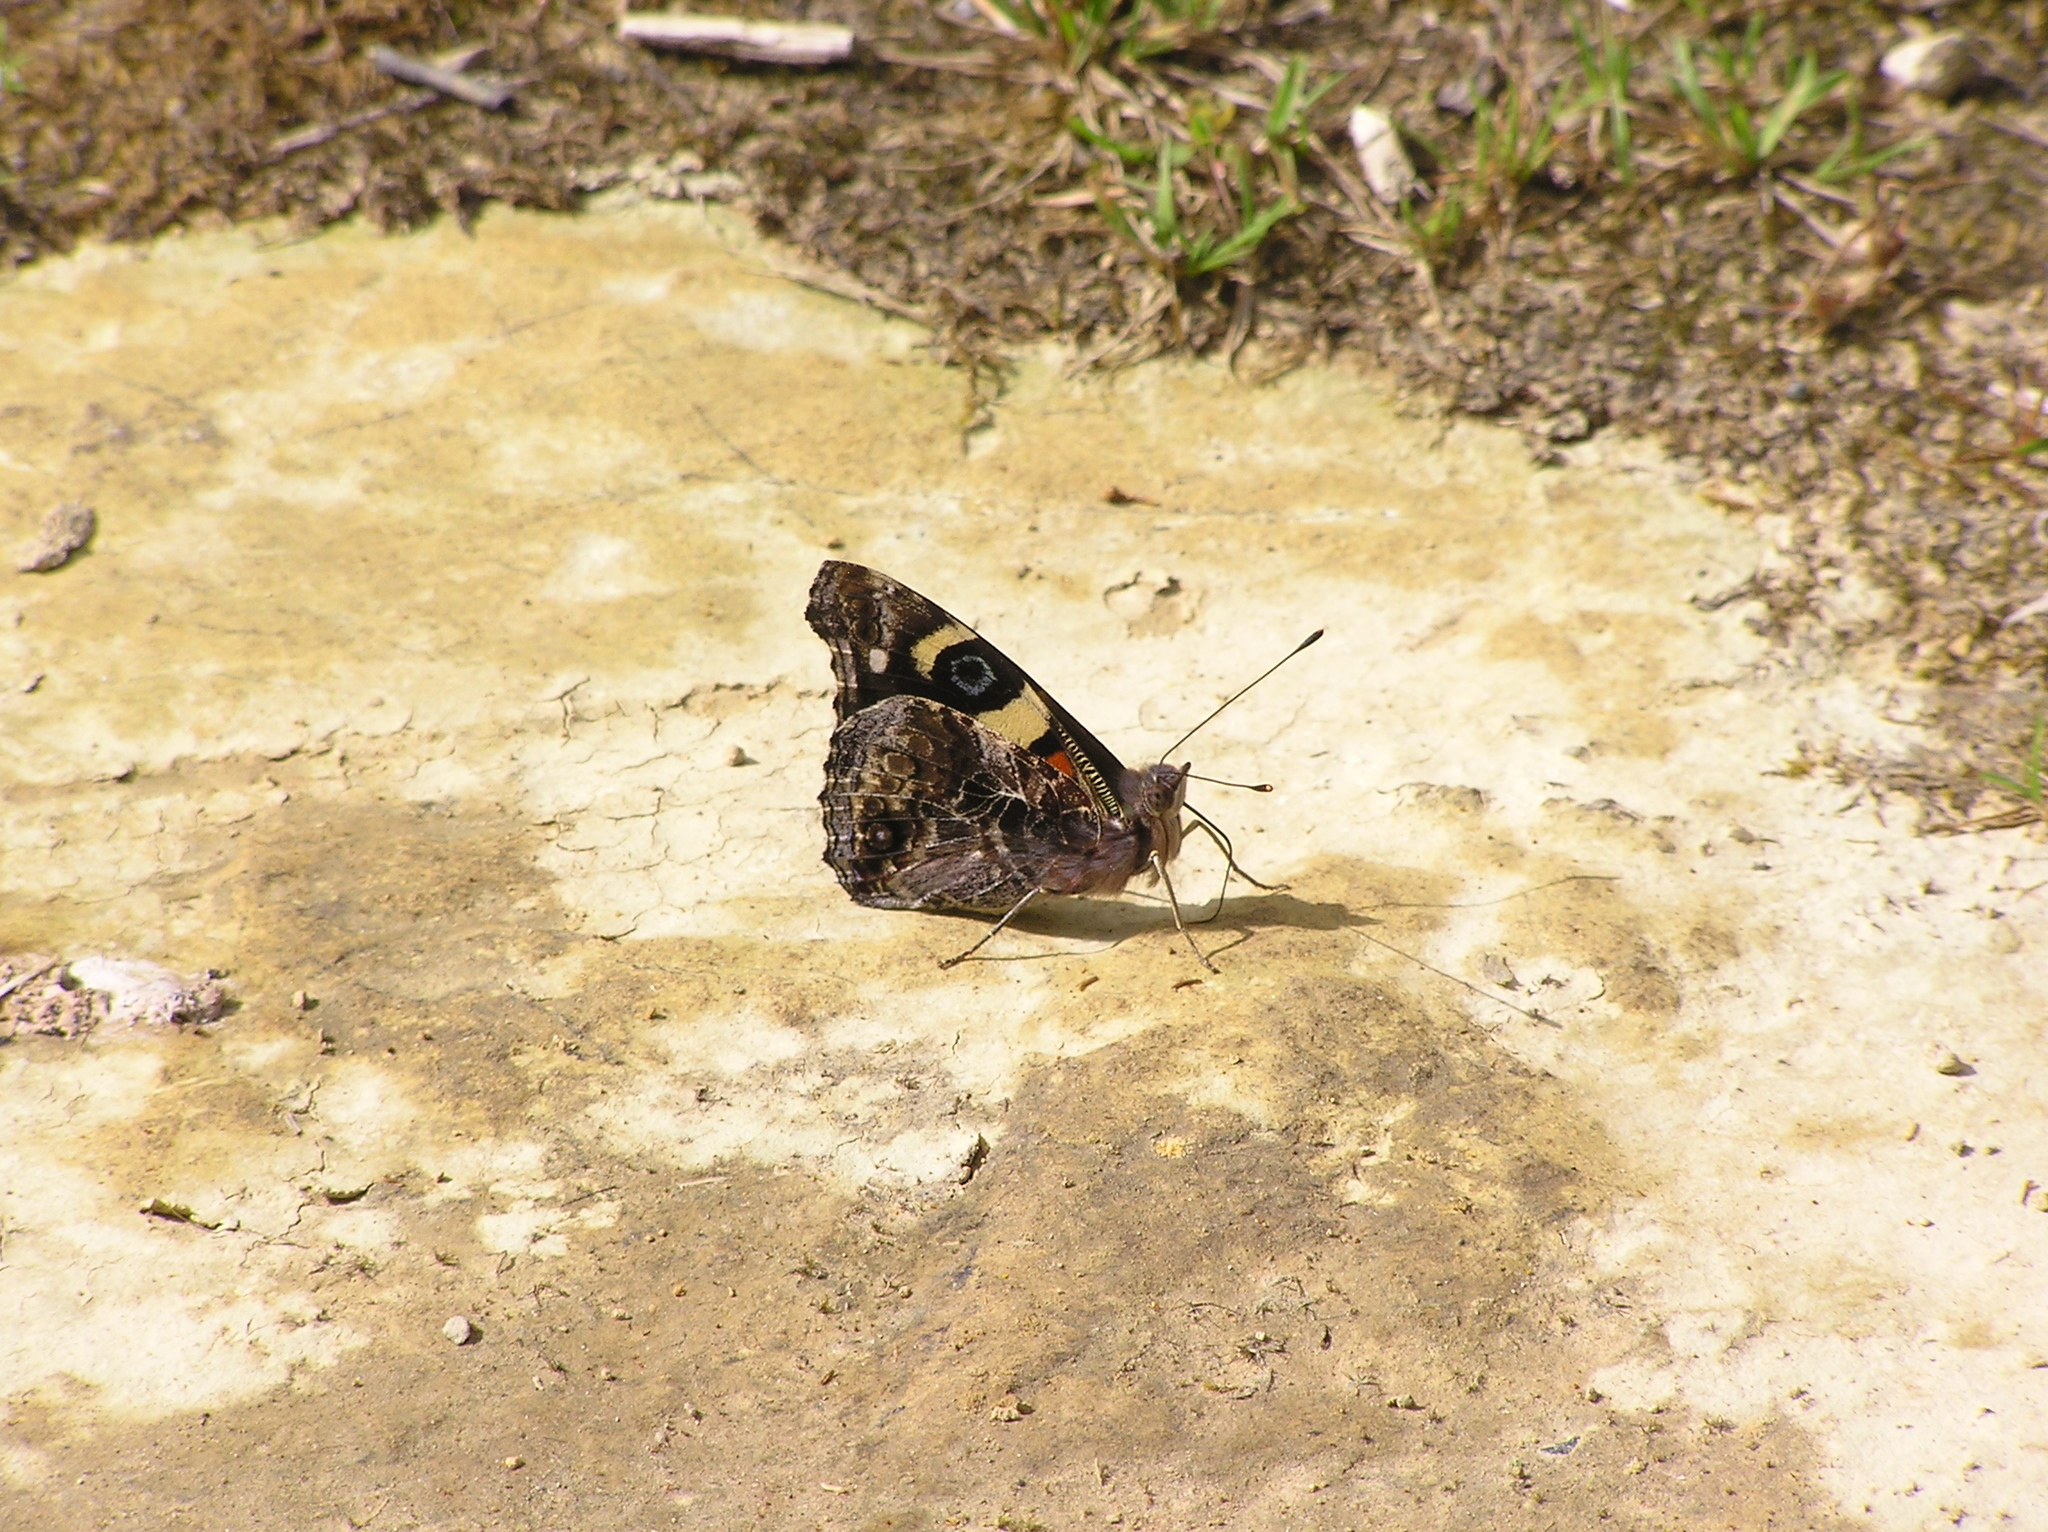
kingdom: Animalia
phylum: Arthropoda
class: Insecta
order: Lepidoptera
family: Nymphalidae
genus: Vanessa
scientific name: Vanessa itea
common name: Yellow admiral
